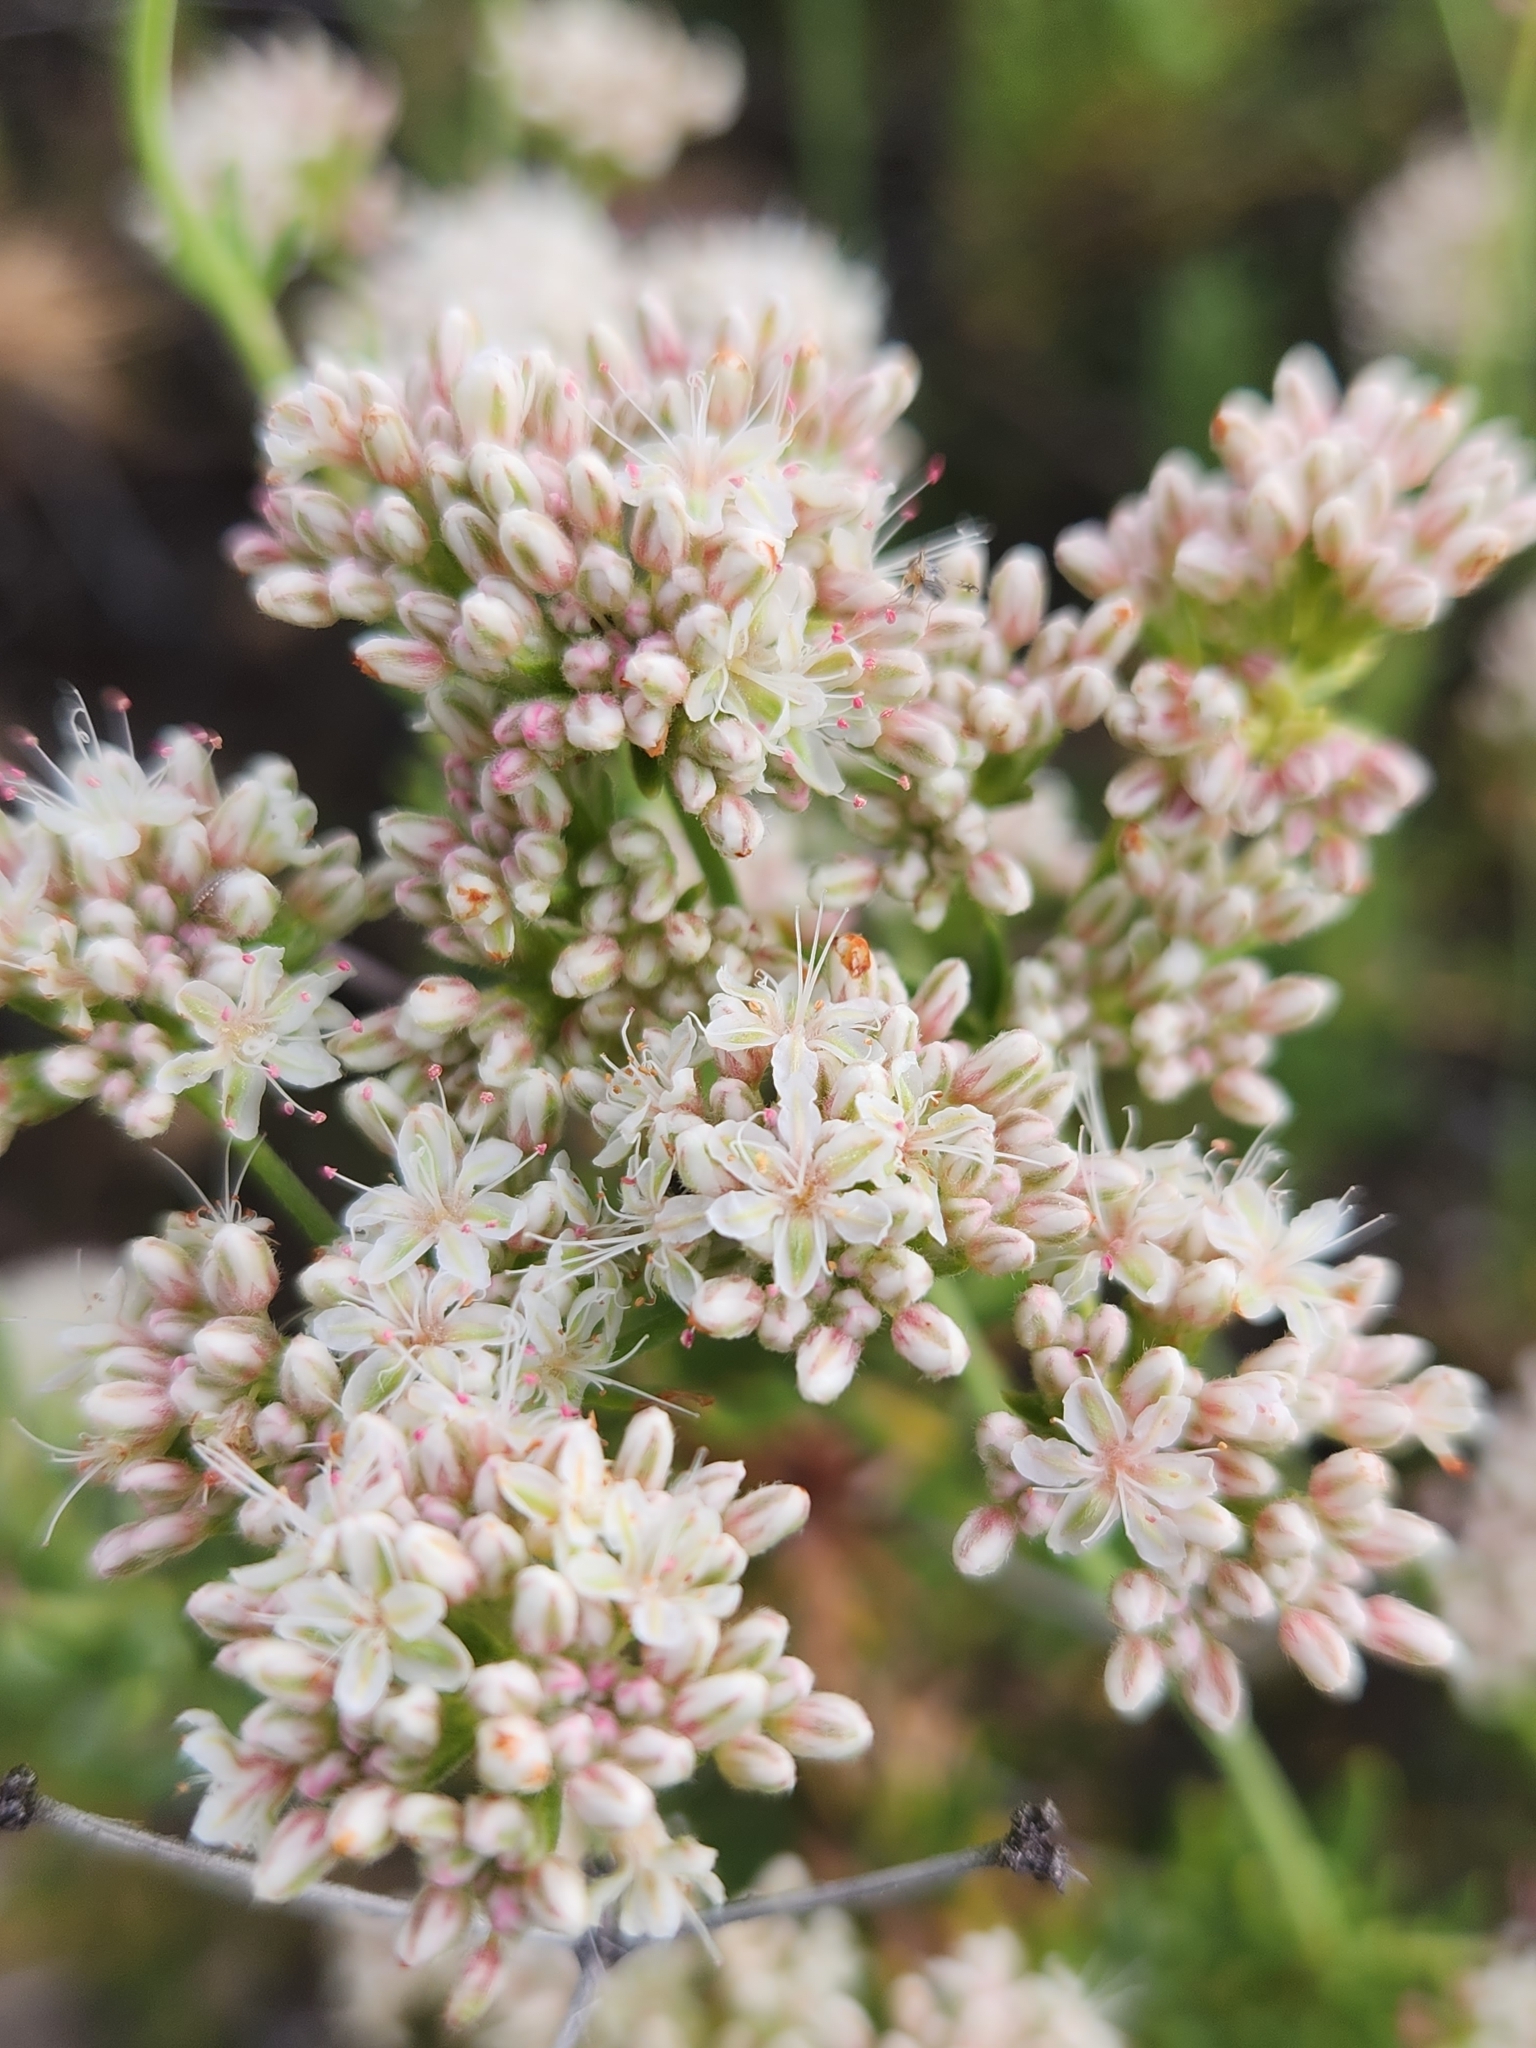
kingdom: Plantae
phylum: Tracheophyta
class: Magnoliopsida
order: Caryophyllales
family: Polygonaceae
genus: Eriogonum
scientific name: Eriogonum fasciculatum
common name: California wild buckwheat
